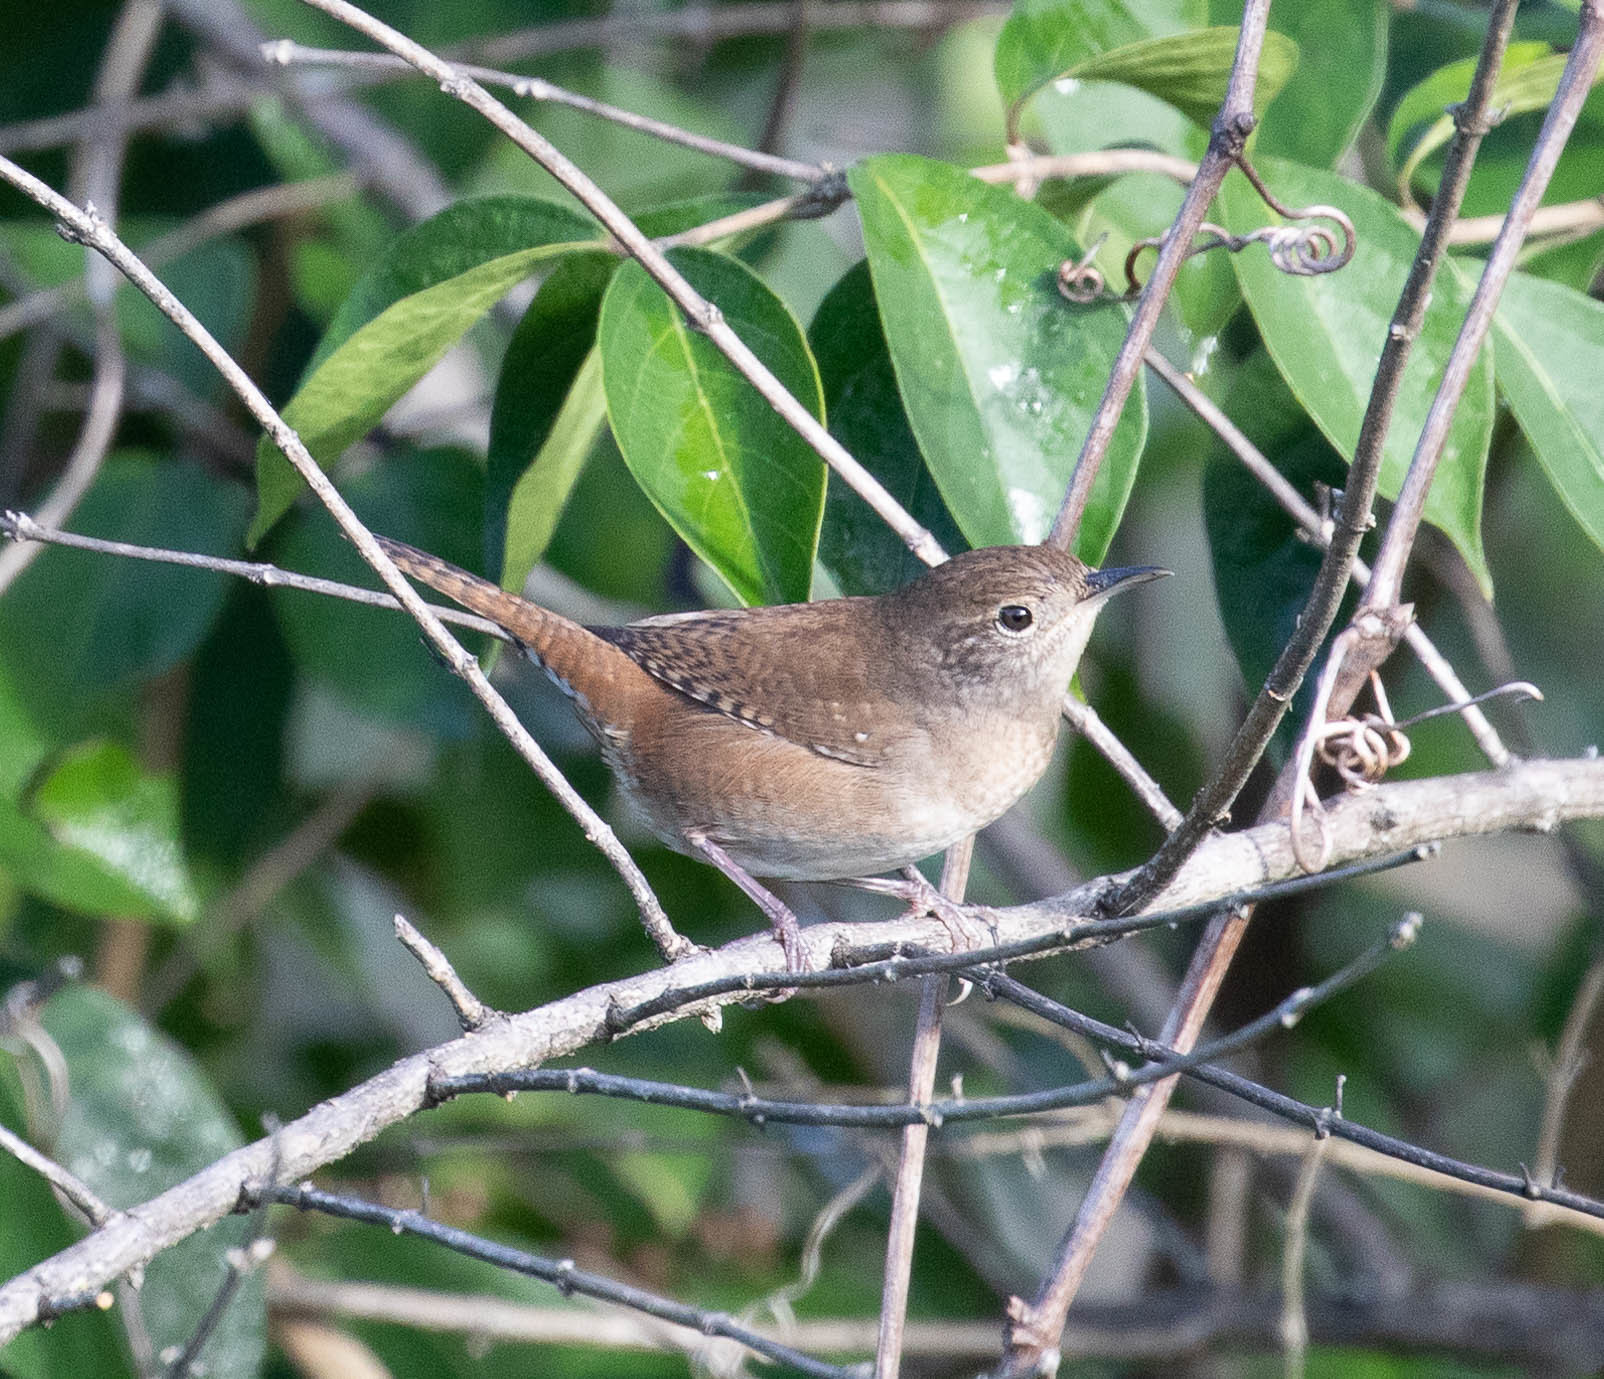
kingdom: Animalia
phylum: Chordata
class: Aves
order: Passeriformes
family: Troglodytidae
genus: Troglodytes
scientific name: Troglodytes aedon
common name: House wren
